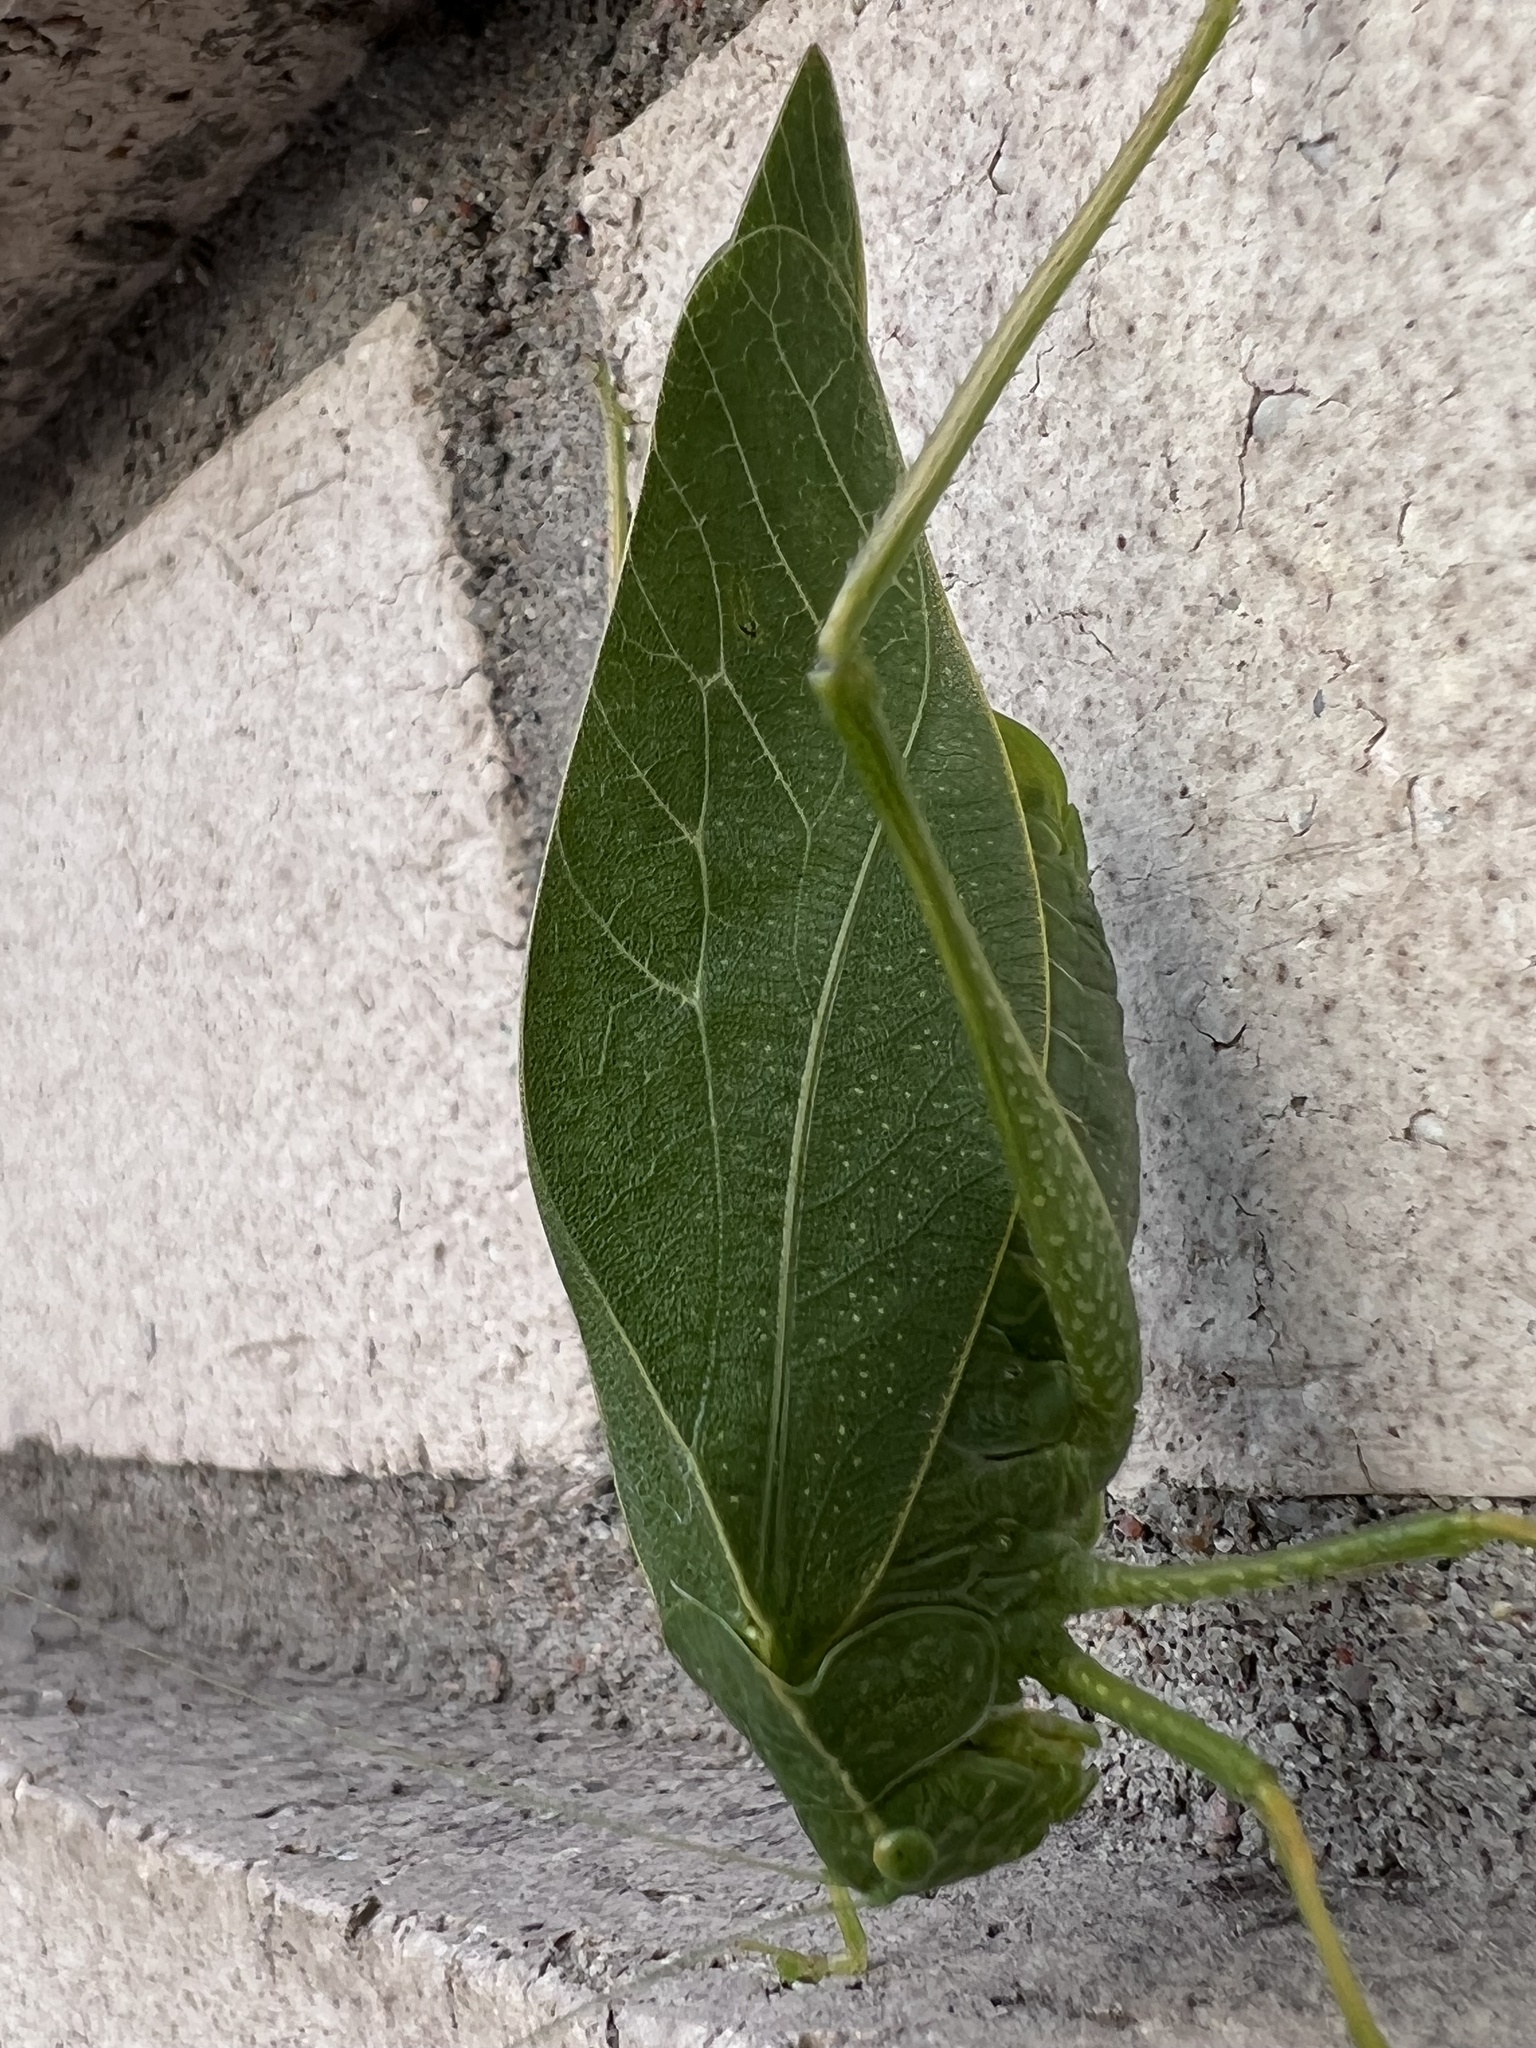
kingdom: Animalia
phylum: Arthropoda
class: Insecta
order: Orthoptera
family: Tettigoniidae
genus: Microcentrum
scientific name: Microcentrum rhombifolium
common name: Broad-winged katydid
